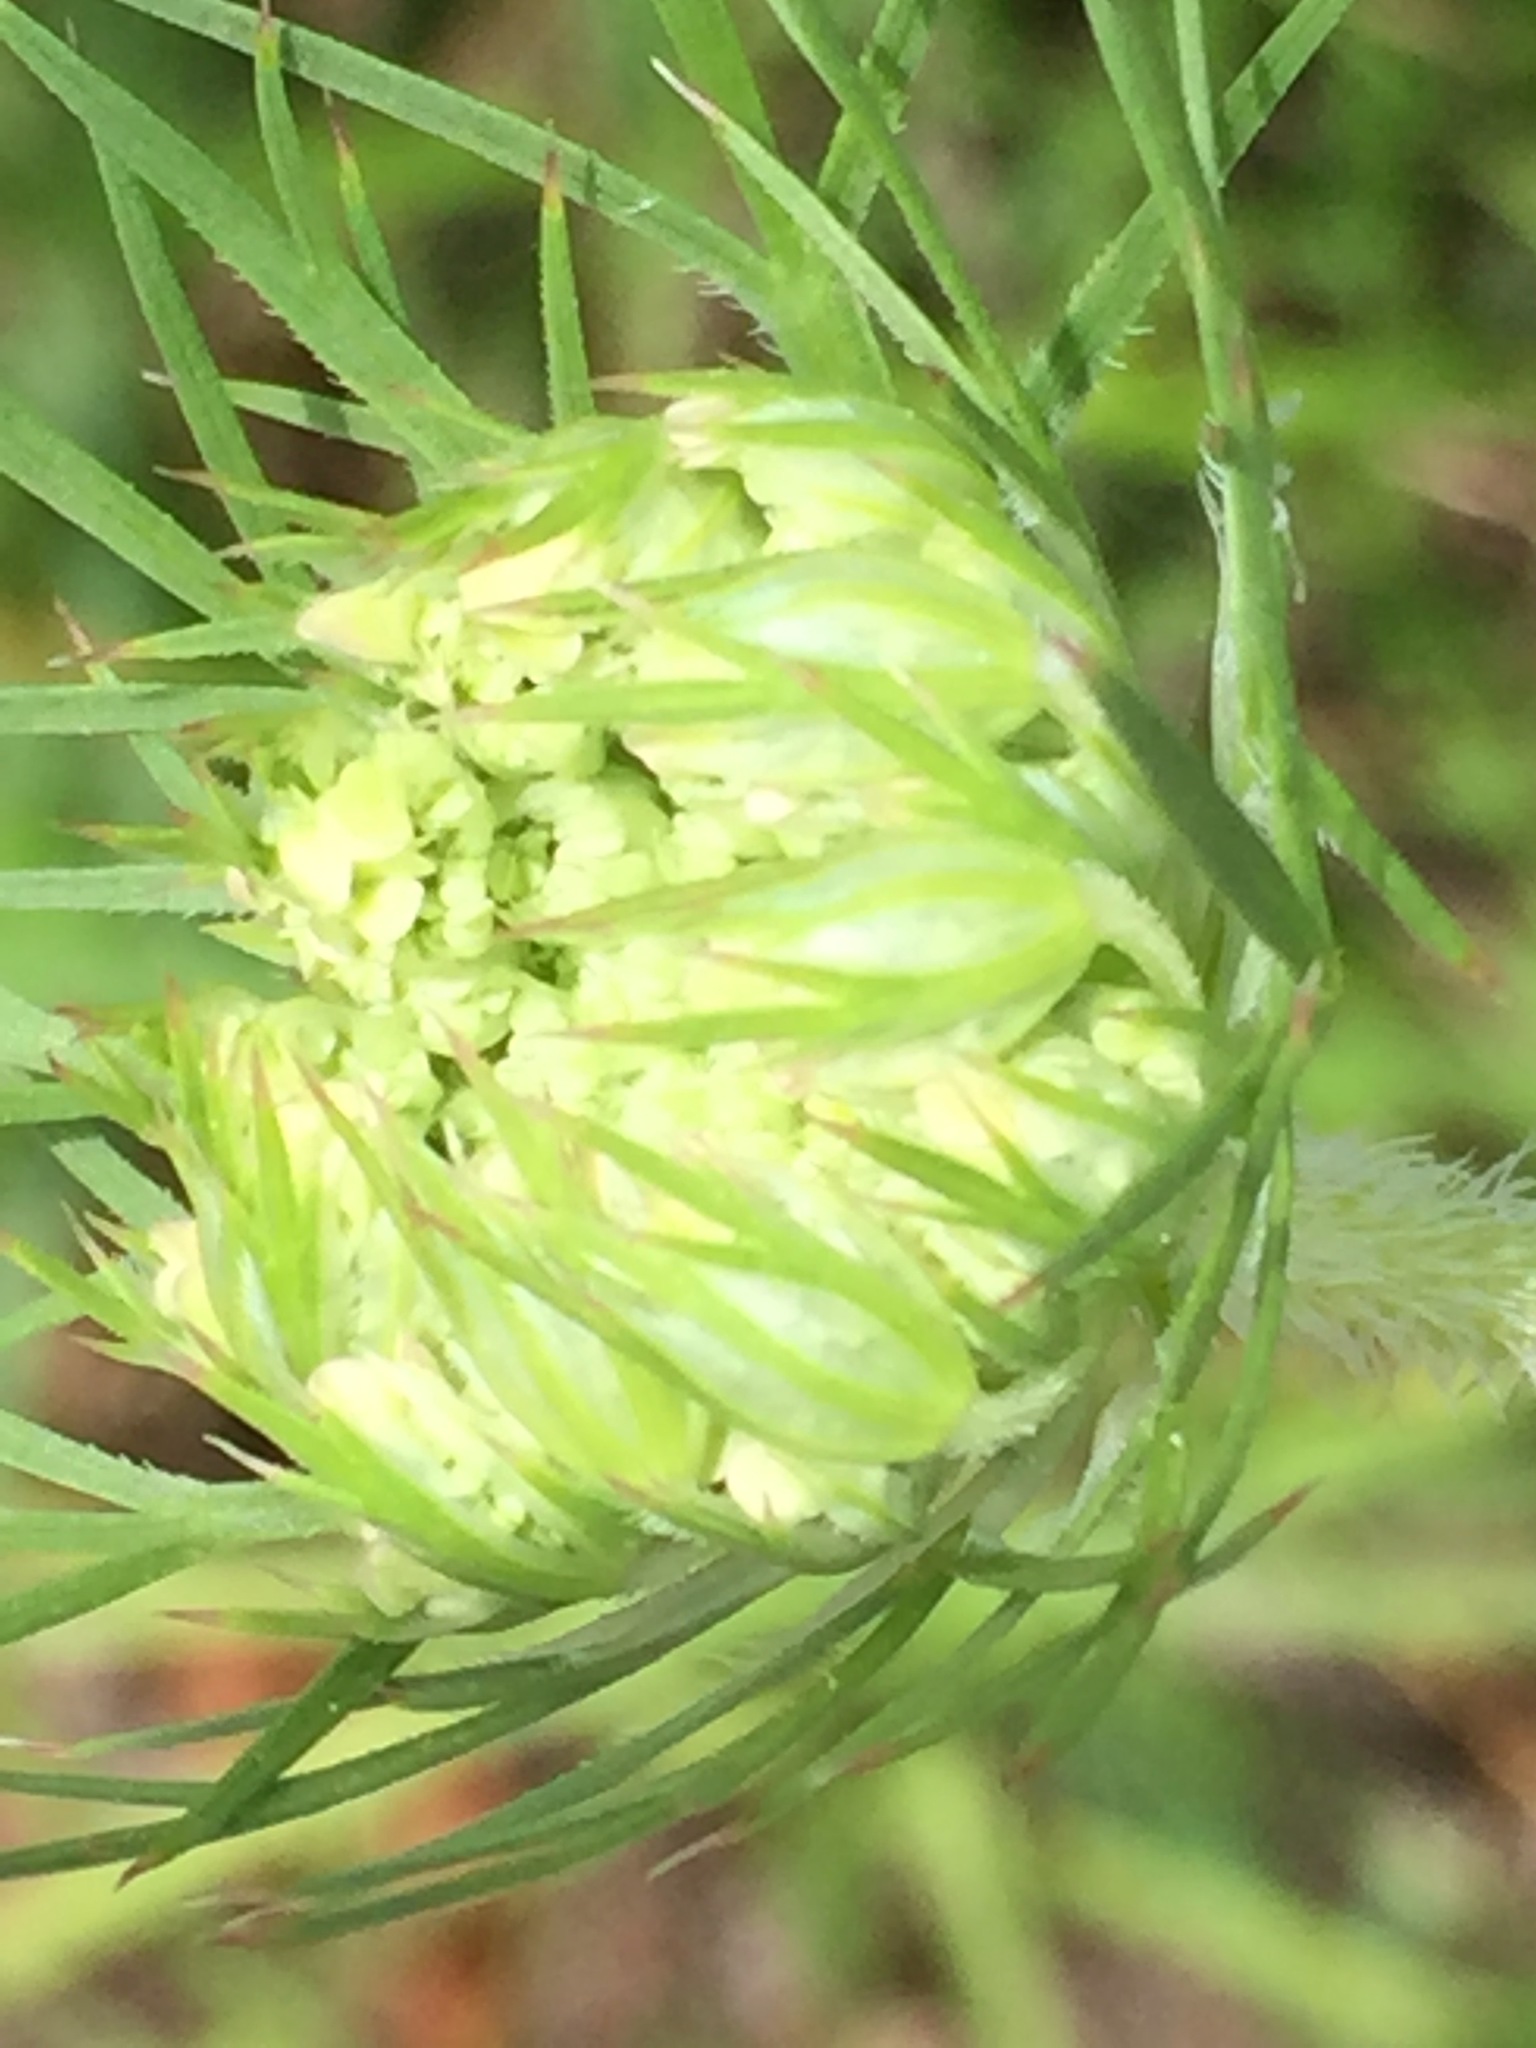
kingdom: Plantae
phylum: Tracheophyta
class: Magnoliopsida
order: Apiales
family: Apiaceae
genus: Daucus
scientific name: Daucus carota
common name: Wild carrot
